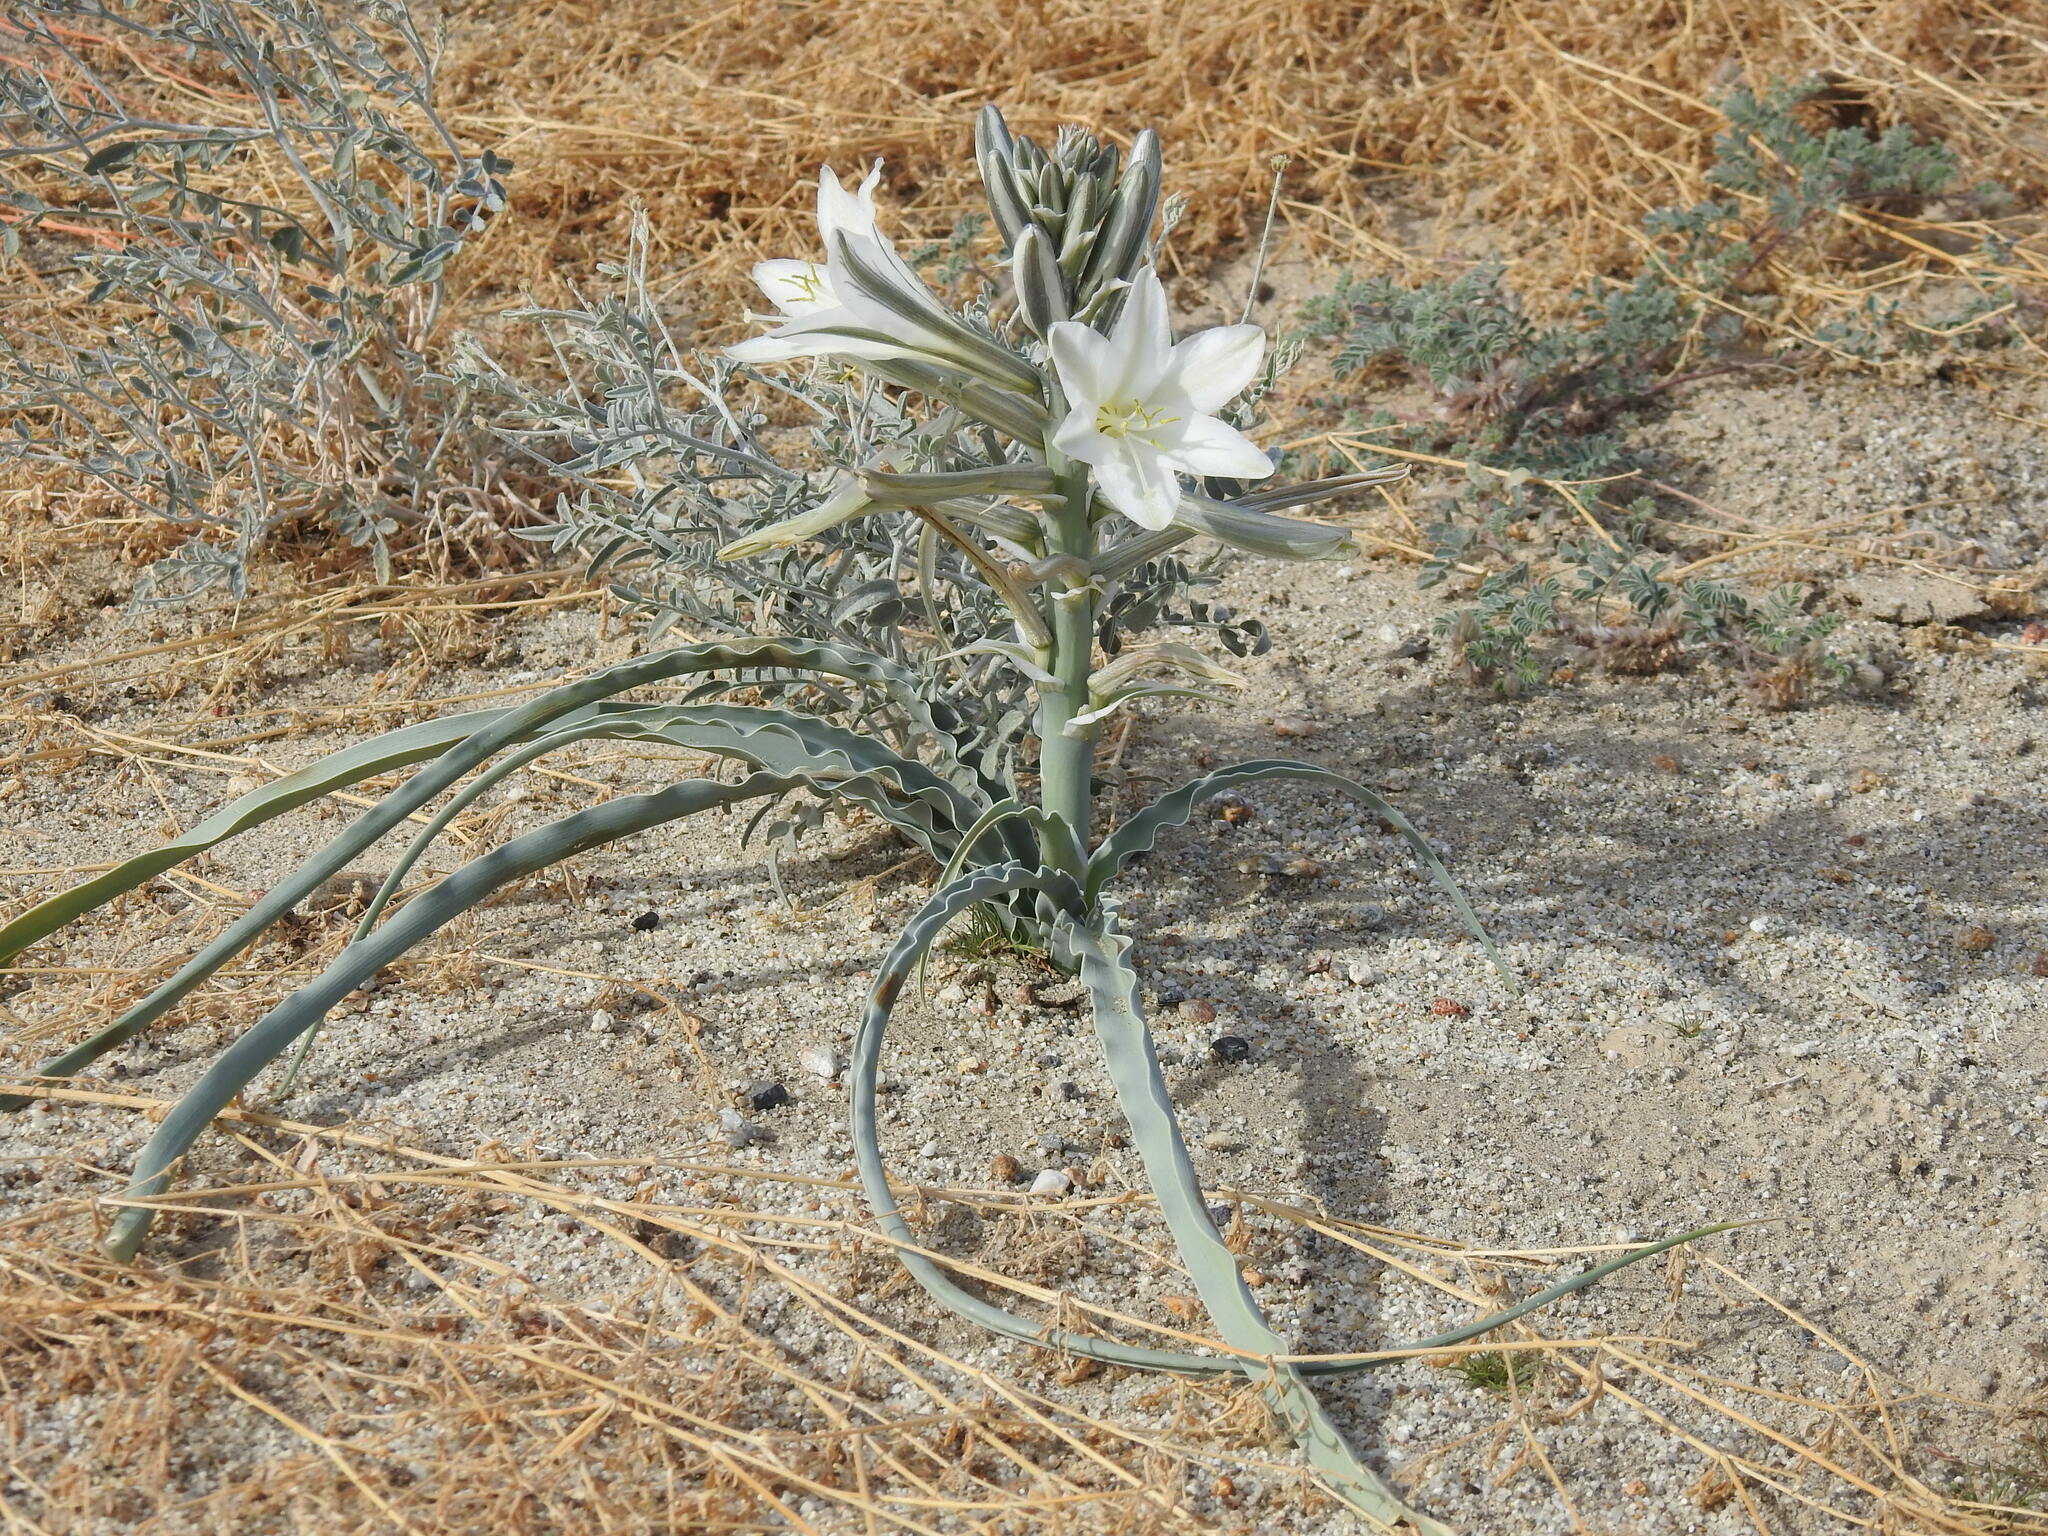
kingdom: Plantae
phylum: Tracheophyta
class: Liliopsida
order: Asparagales
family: Asparagaceae
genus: Hesperocallis
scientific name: Hesperocallis undulata
